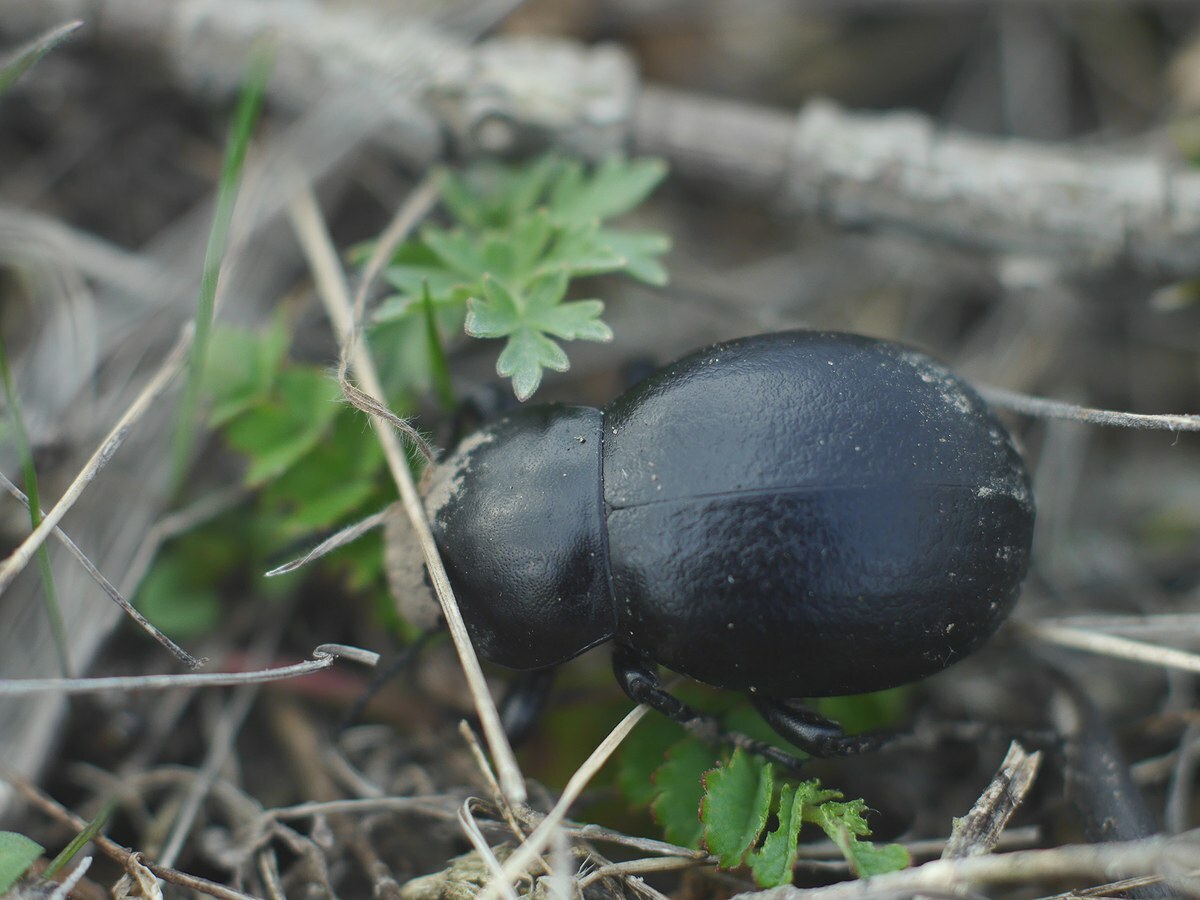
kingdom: Animalia
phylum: Arthropoda
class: Insecta
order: Coleoptera
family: Tenebrionidae
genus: Gnaptor
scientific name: Gnaptor spinimanus
